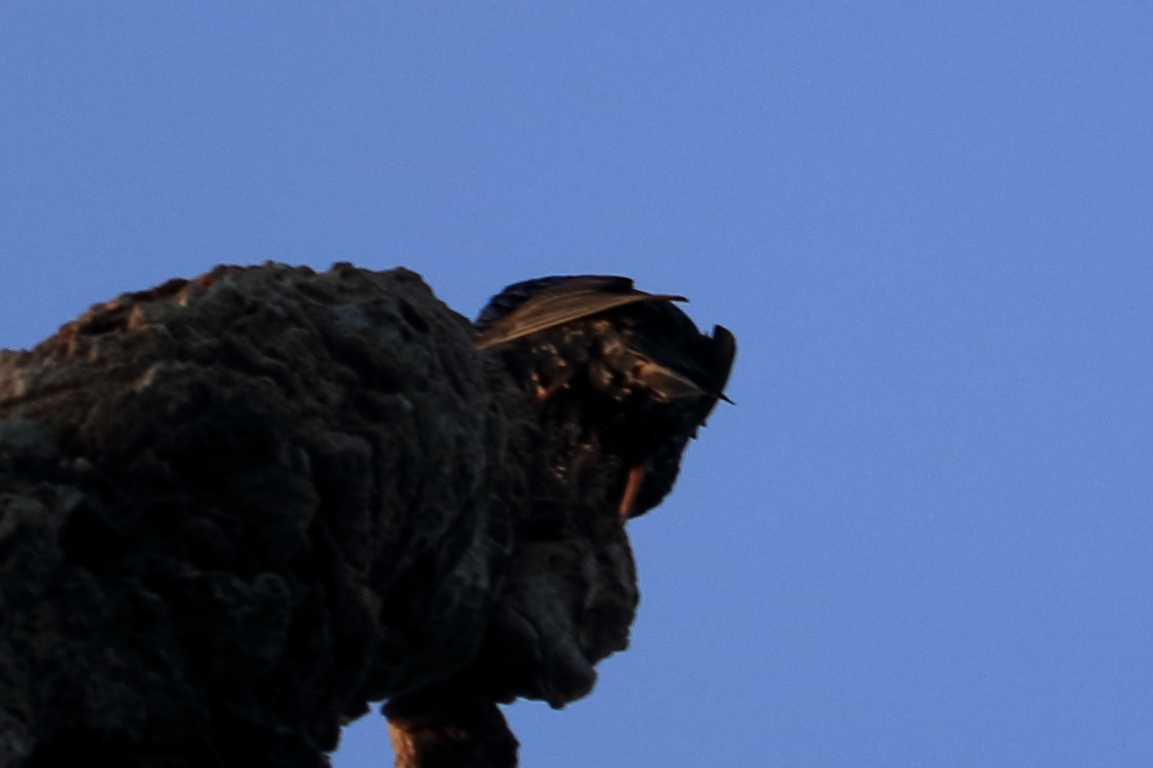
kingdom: Animalia
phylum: Chordata
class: Aves
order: Passeriformes
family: Sturnidae
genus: Sturnus
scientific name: Sturnus vulgaris
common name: Common starling
